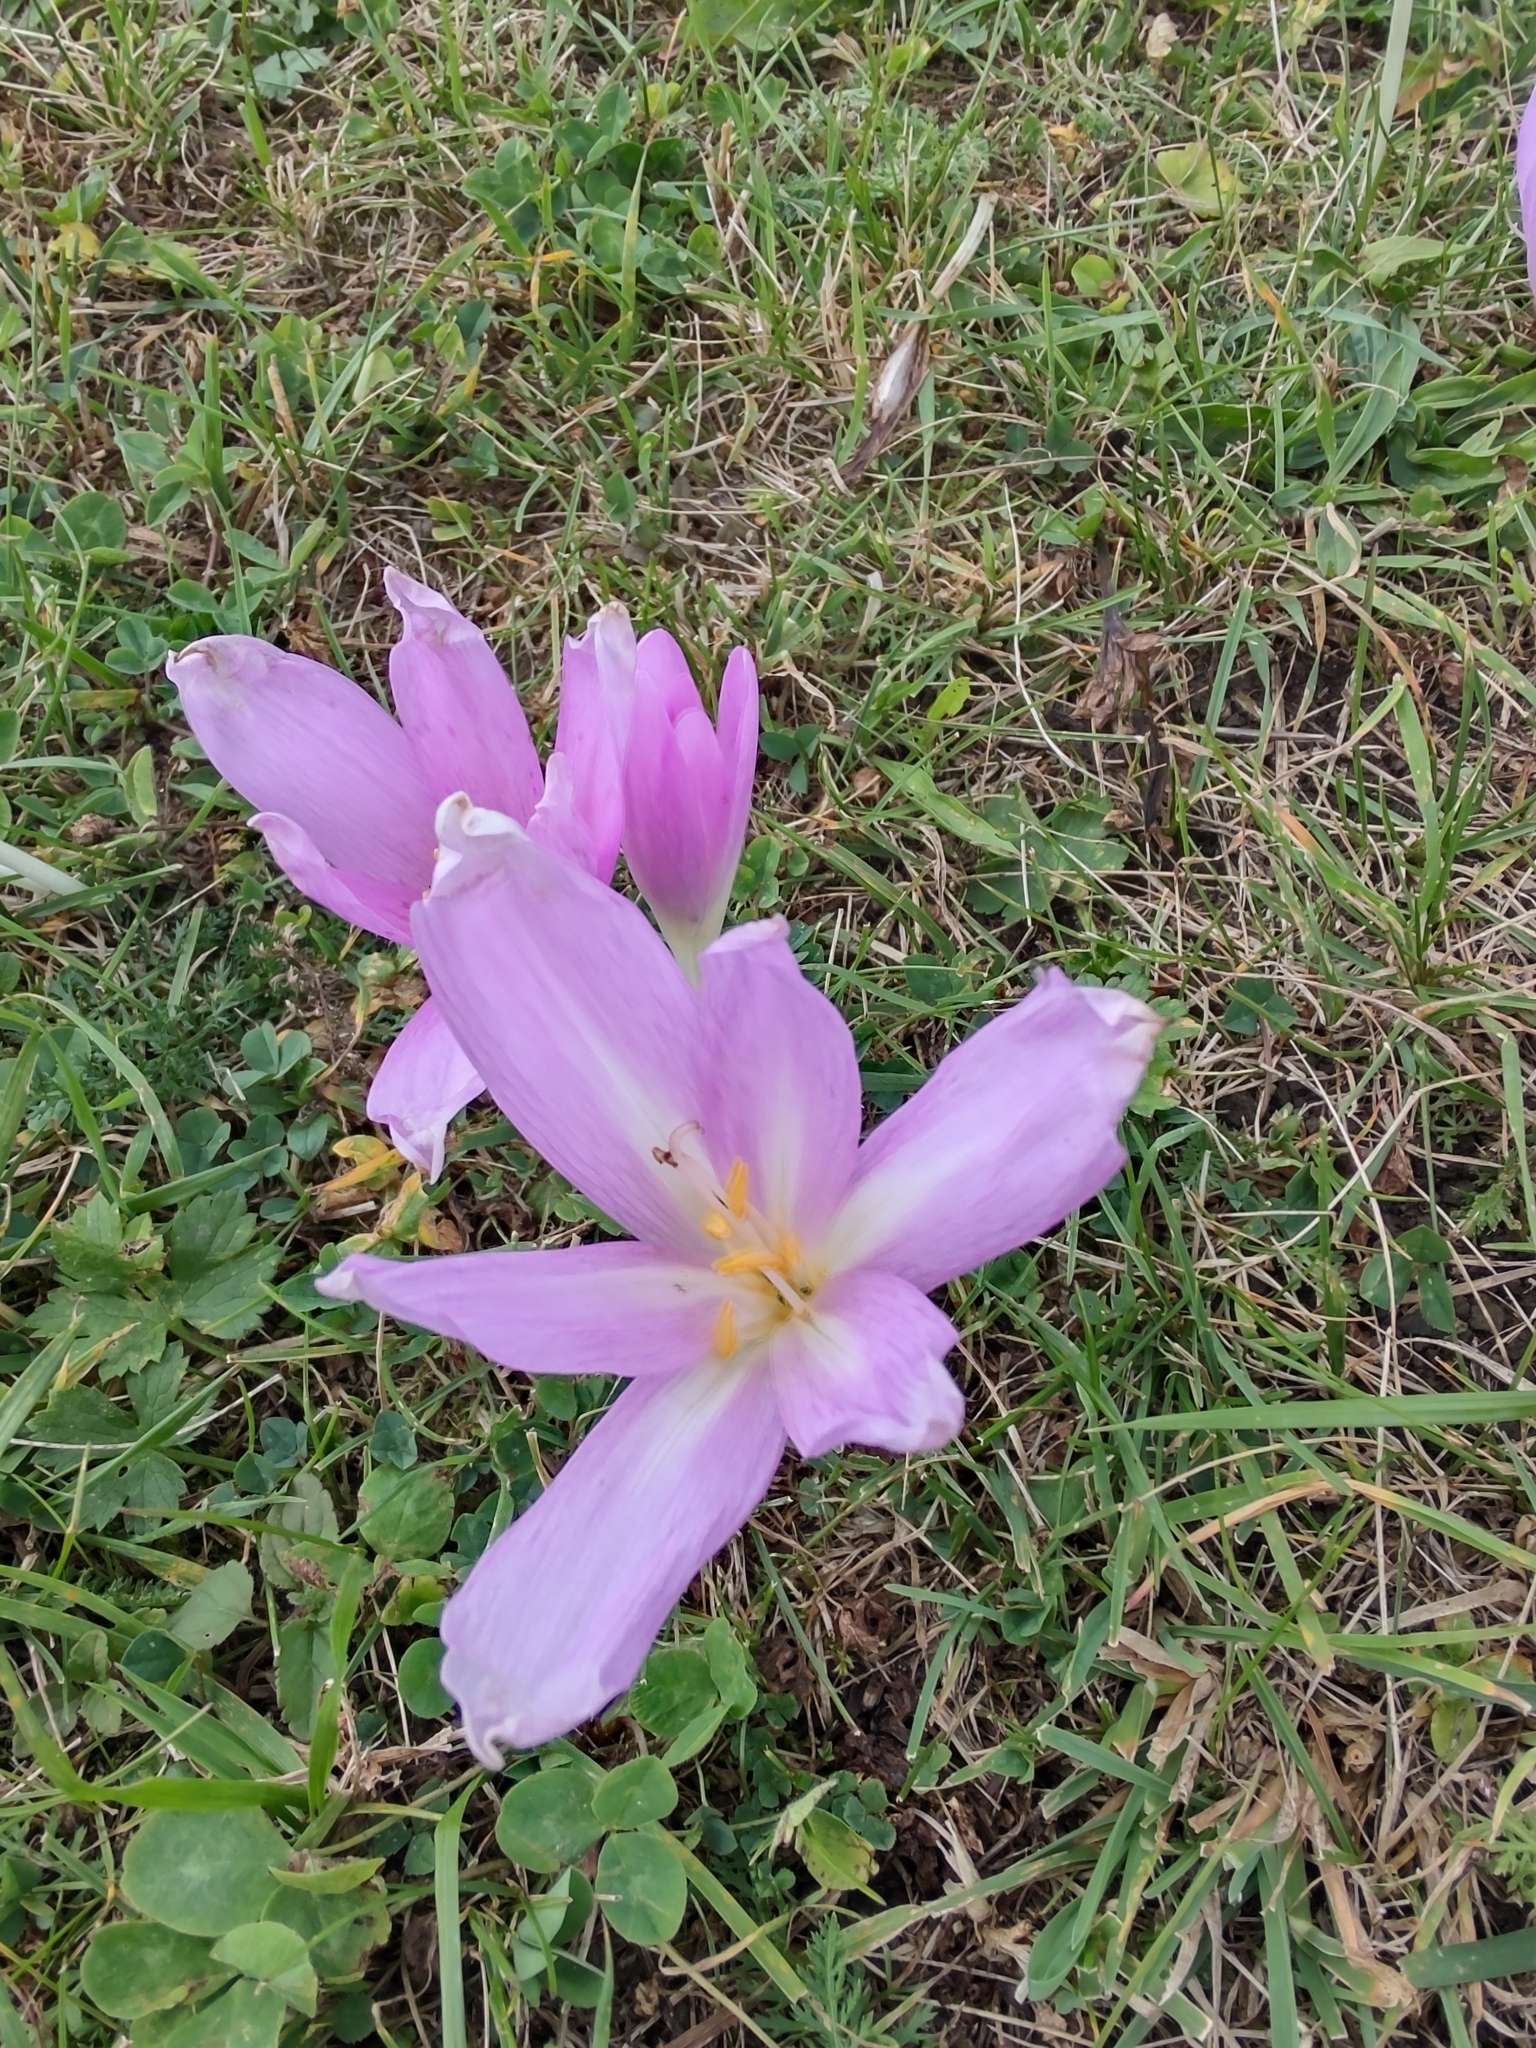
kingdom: Plantae
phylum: Tracheophyta
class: Liliopsida
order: Liliales
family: Colchicaceae
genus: Colchicum
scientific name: Colchicum autumnale
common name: Autumn crocus
